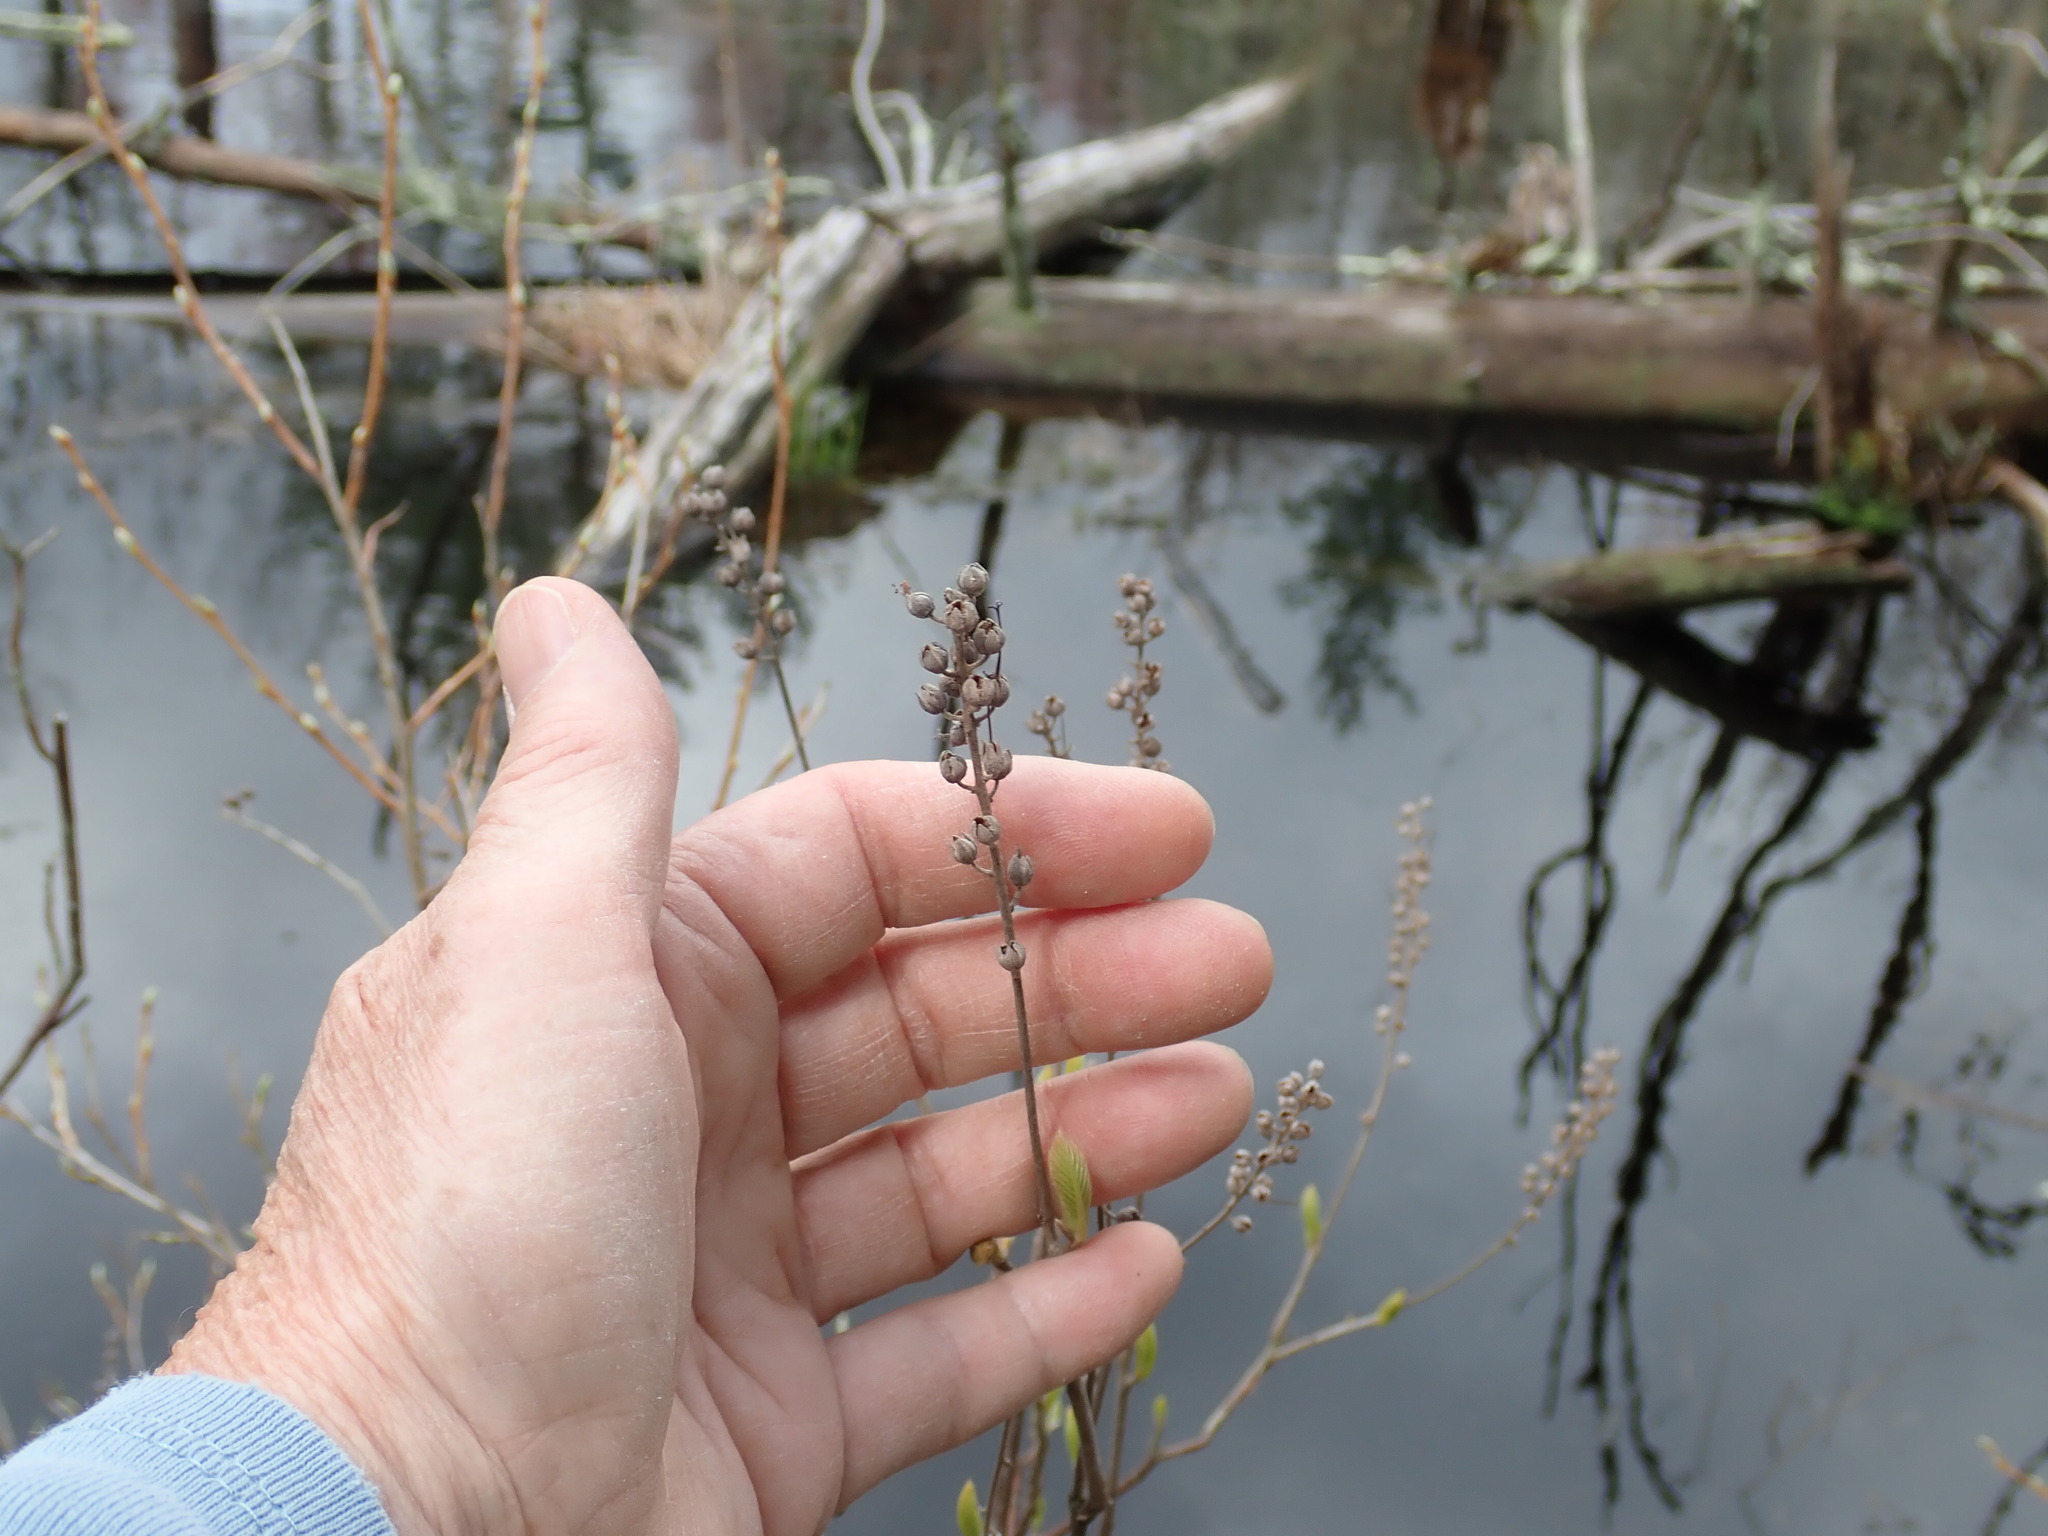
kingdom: Plantae
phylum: Tracheophyta
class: Magnoliopsida
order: Ericales
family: Clethraceae
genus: Clethra
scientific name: Clethra alnifolia
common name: Sweet pepperbush
